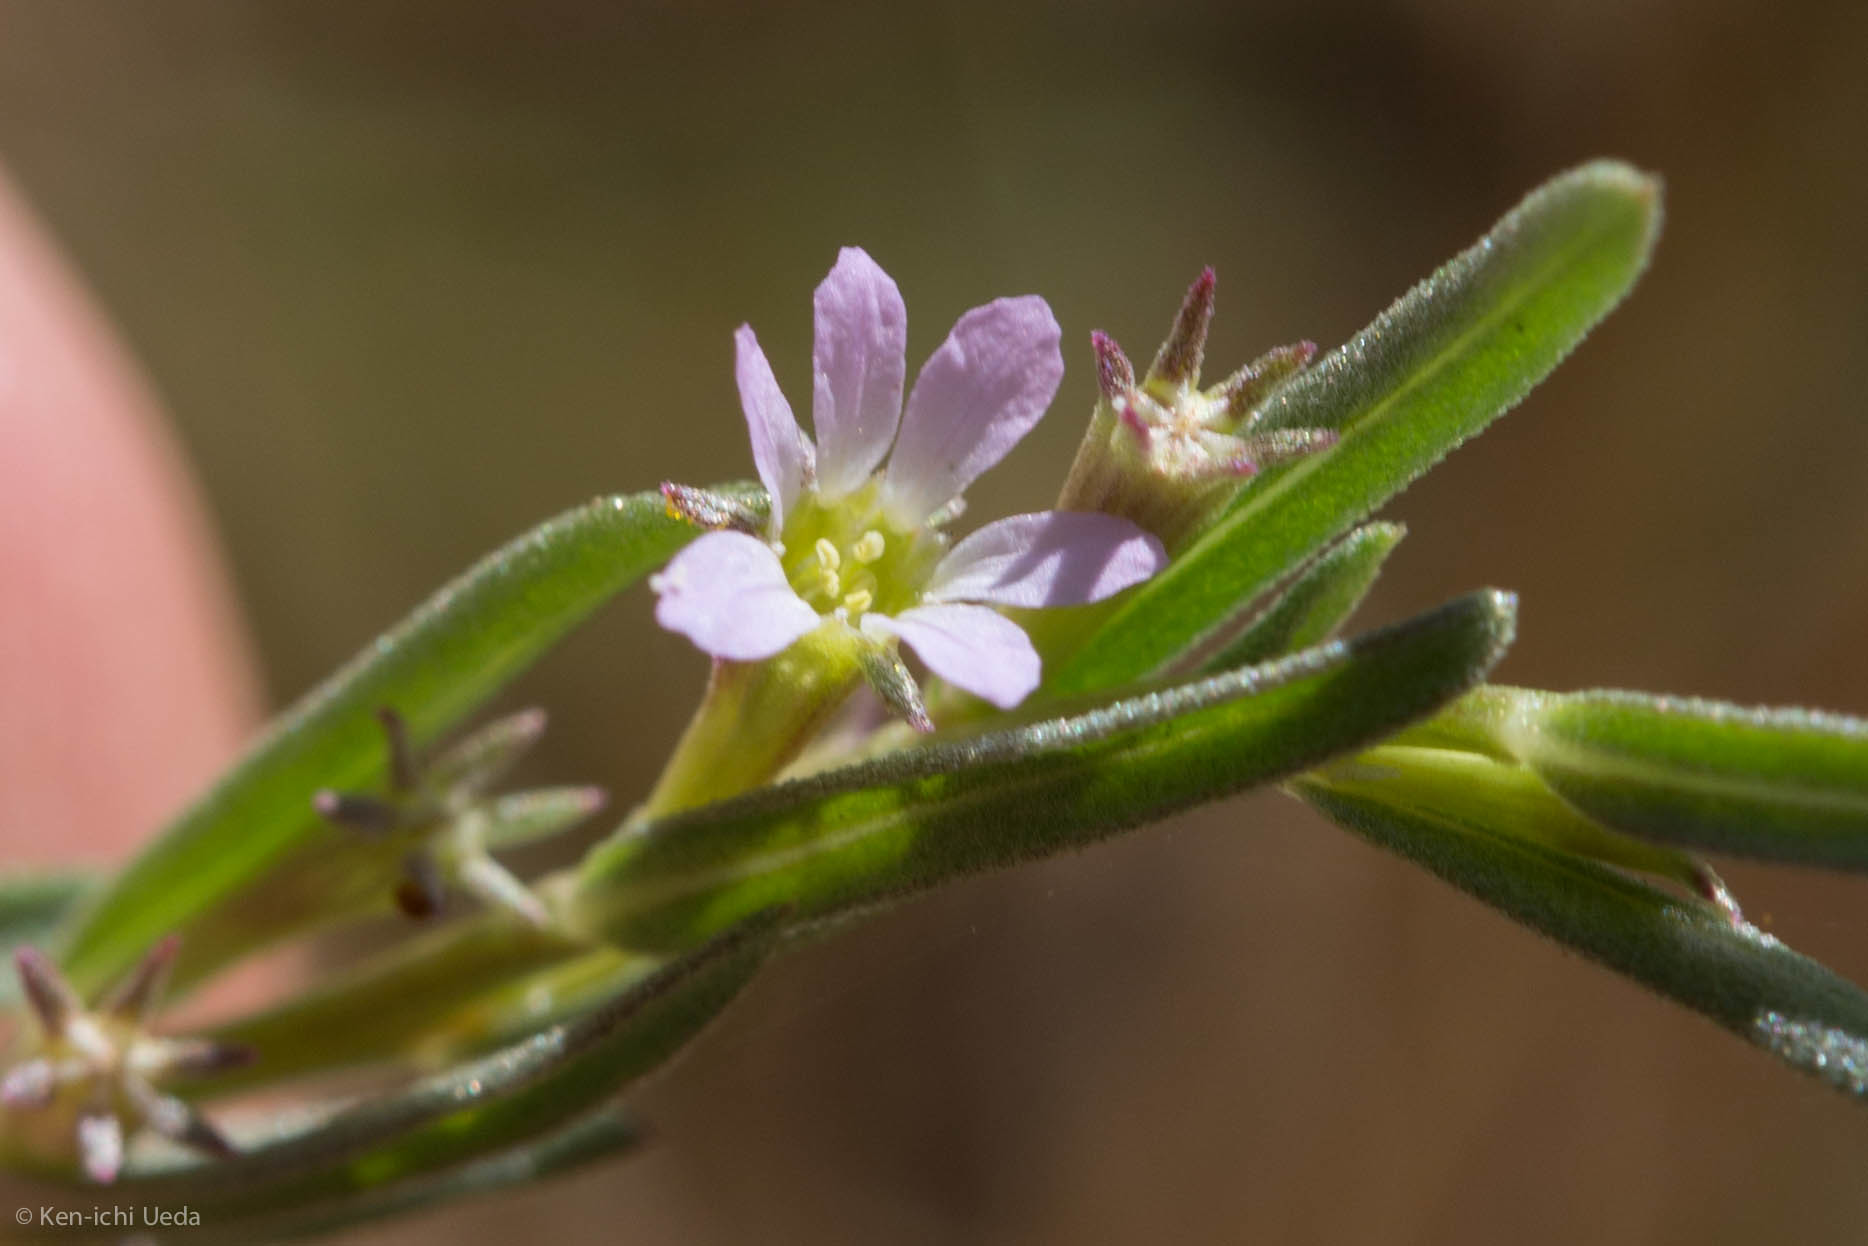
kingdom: Plantae
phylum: Tracheophyta
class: Magnoliopsida
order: Myrtales
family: Lythraceae
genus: Lythrum
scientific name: Lythrum hyssopifolia
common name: Grass-poly
